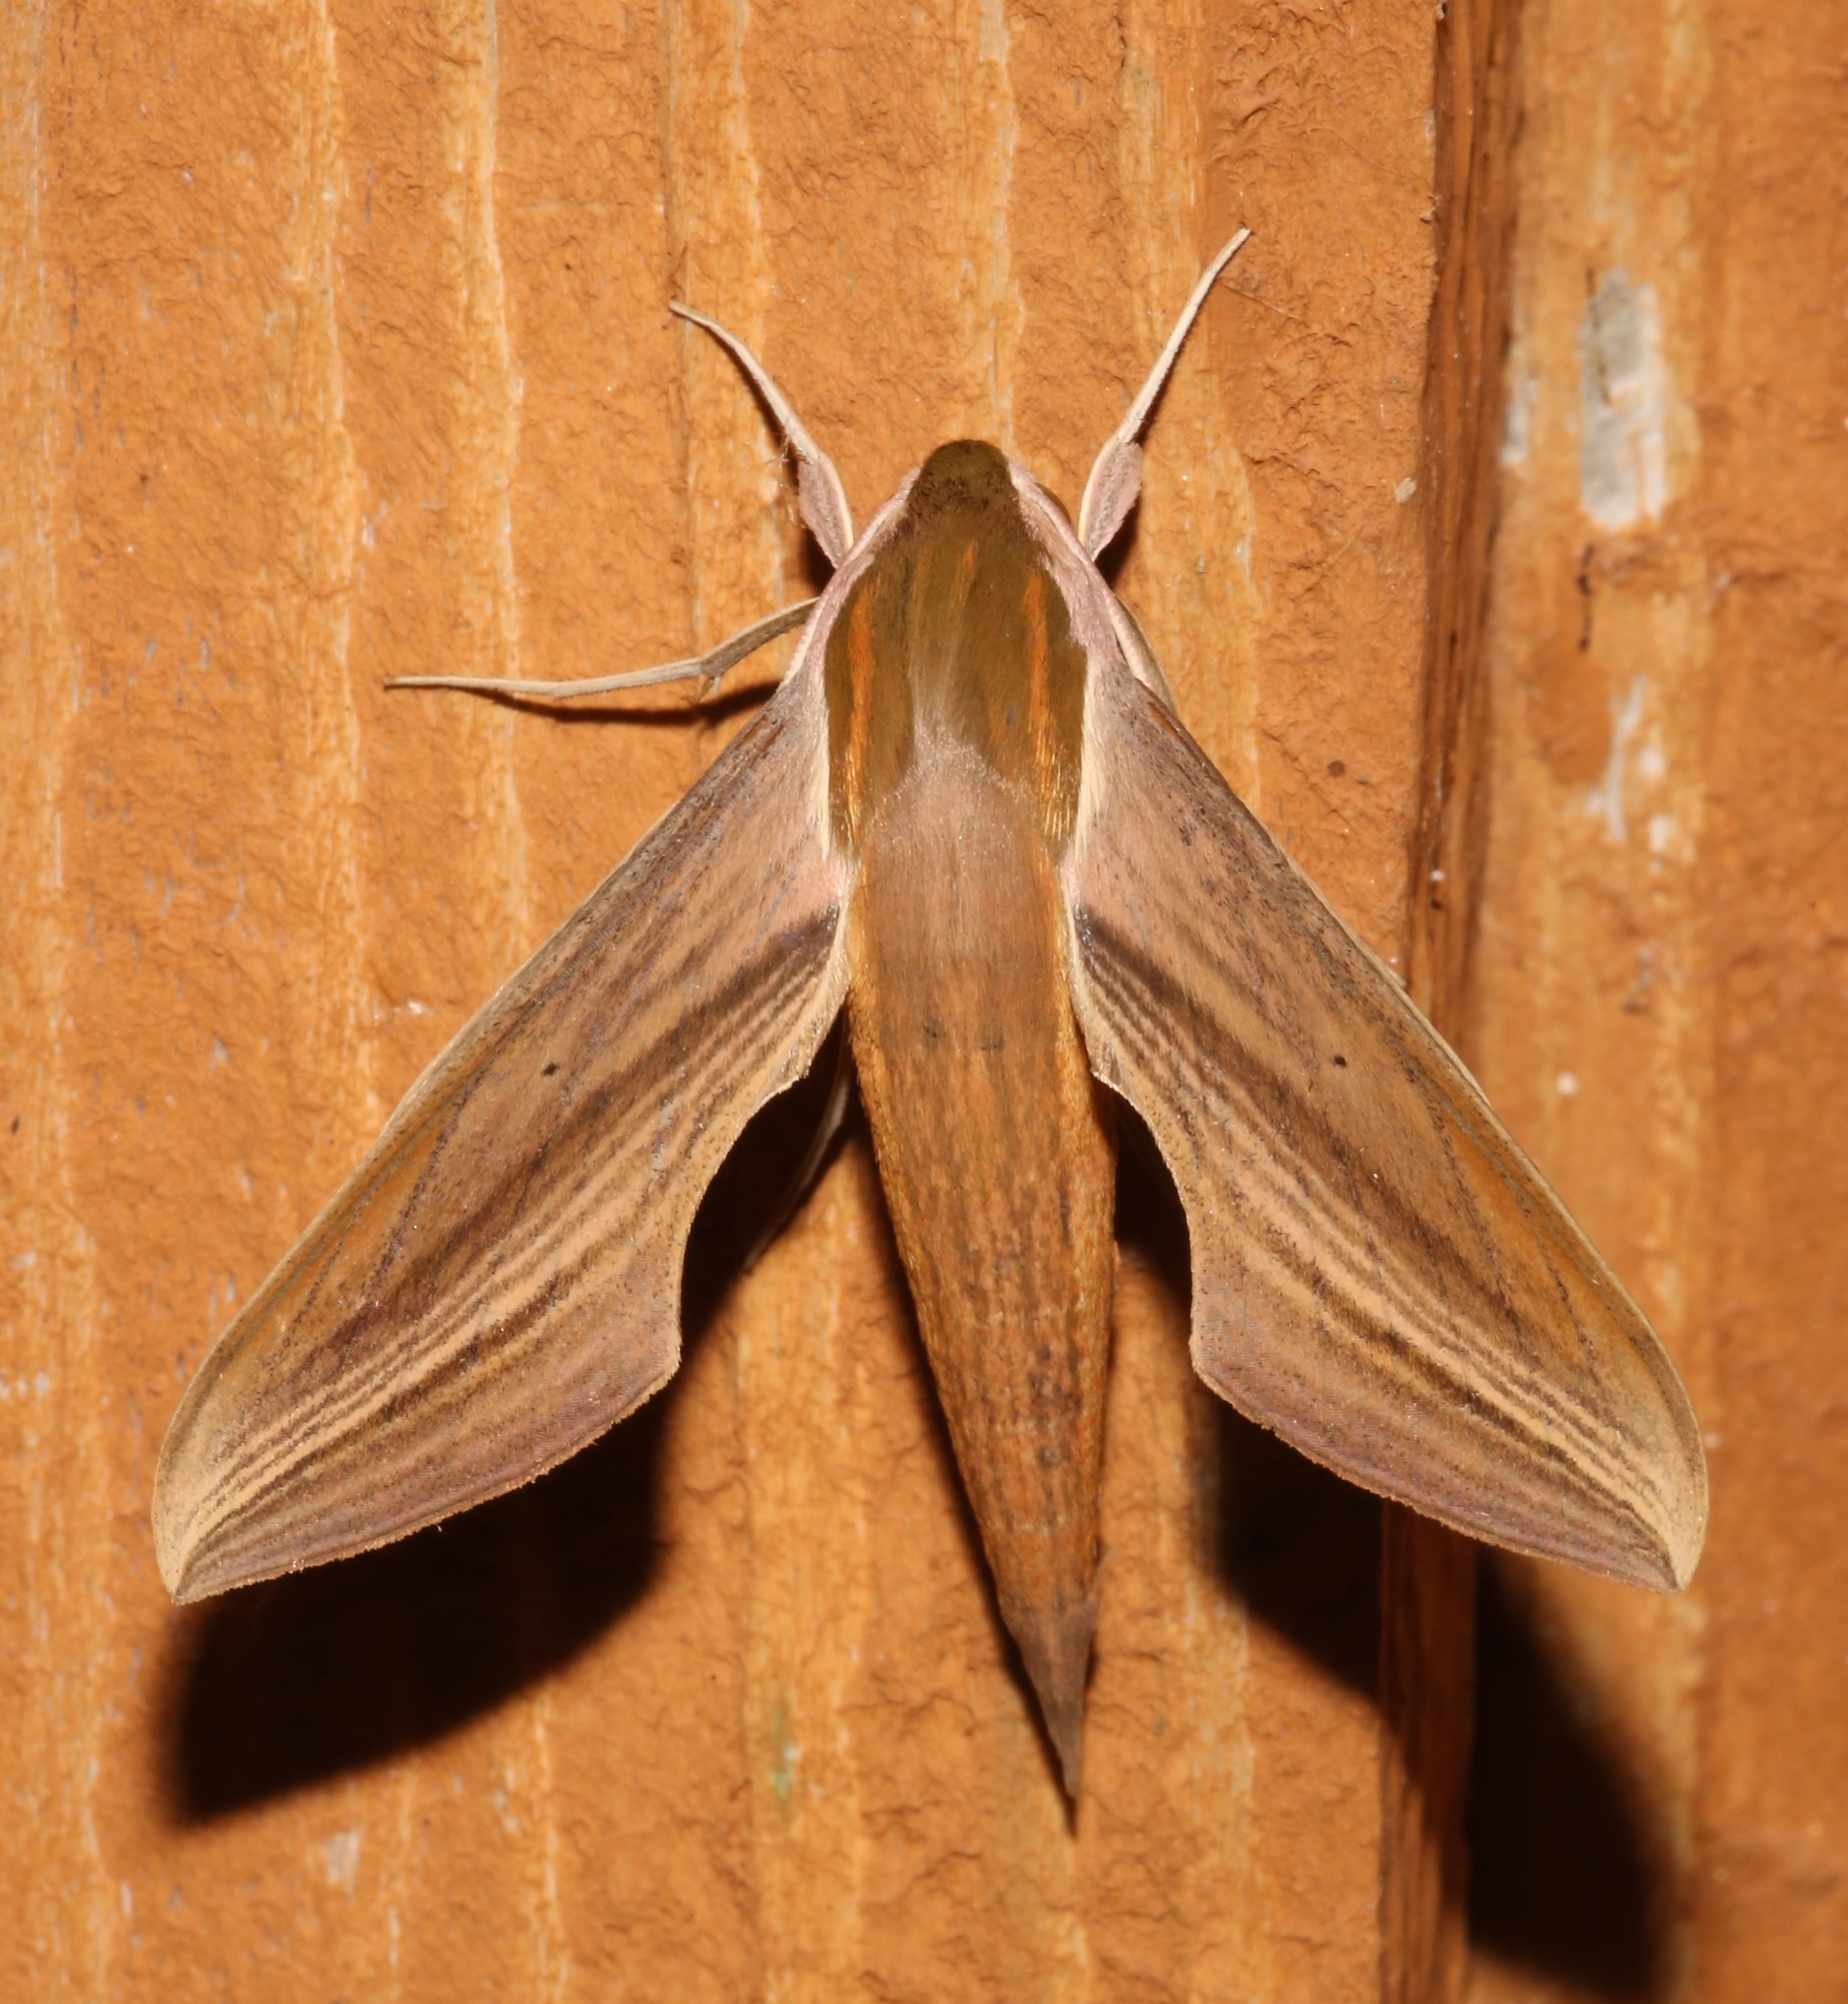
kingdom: Animalia
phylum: Arthropoda
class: Insecta
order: Lepidoptera
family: Sphingidae
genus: Xylophanes
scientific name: Xylophanes tersa
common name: Tersa sphinx
